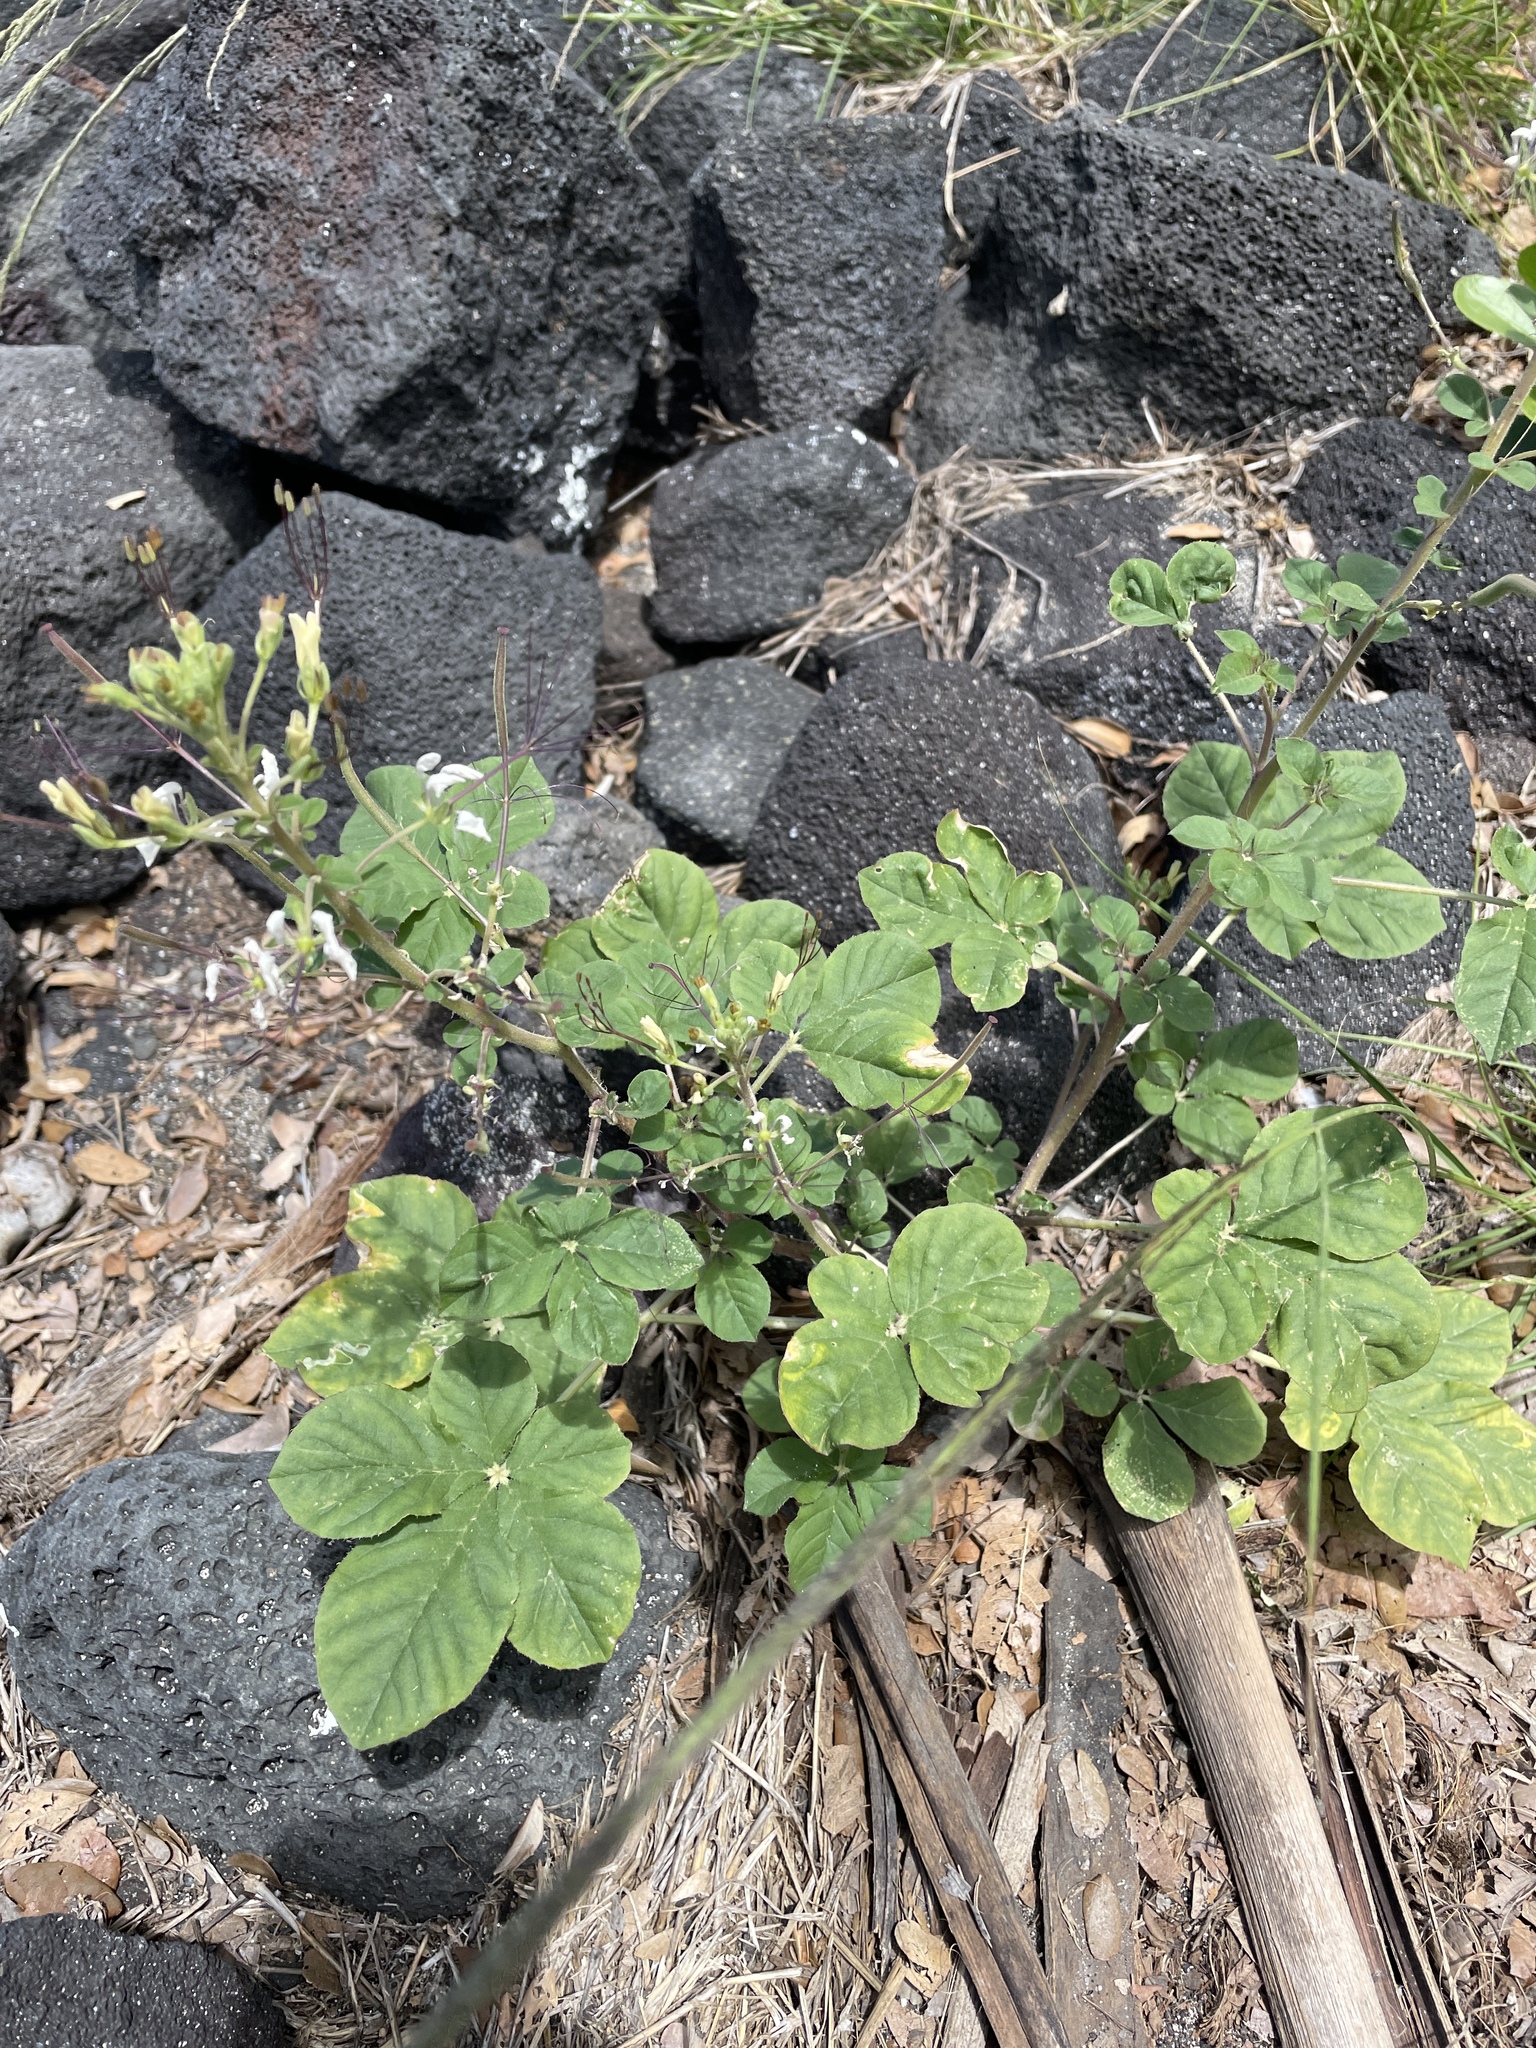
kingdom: Plantae
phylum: Tracheophyta
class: Magnoliopsida
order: Brassicales
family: Cleomaceae
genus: Gynandropsis
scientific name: Gynandropsis gynandra
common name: Spiderwisp
